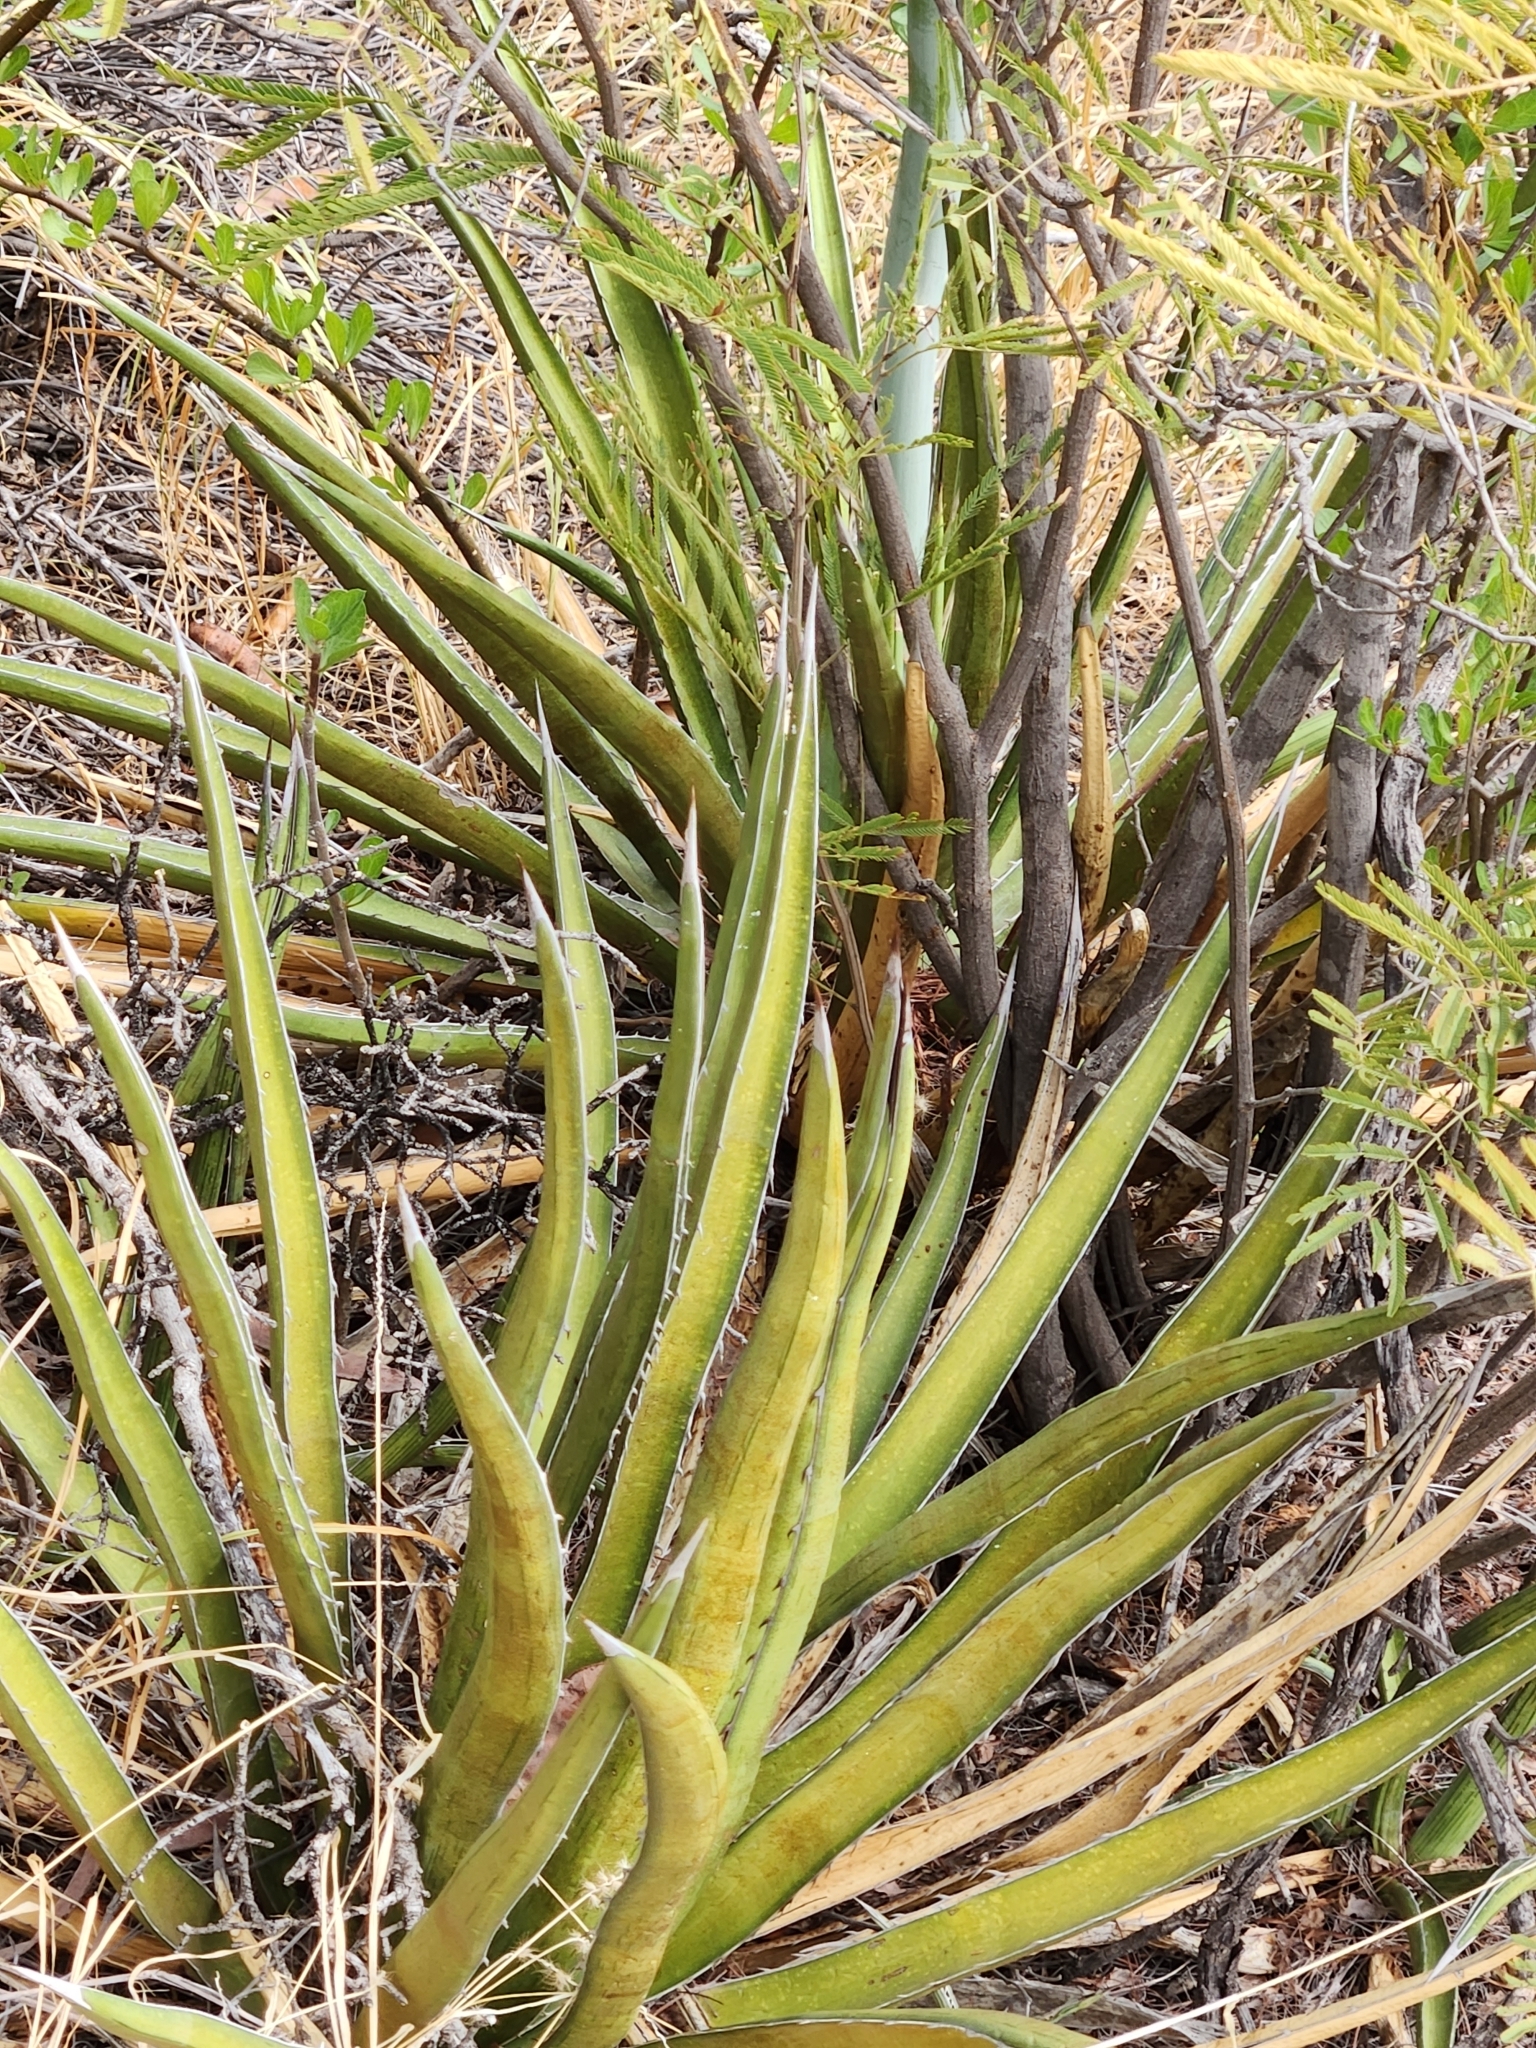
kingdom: Plantae
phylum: Tracheophyta
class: Liliopsida
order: Asparagales
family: Asparagaceae
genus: Agave
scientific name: Agave lechuguilla
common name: Lecheguilla agave
